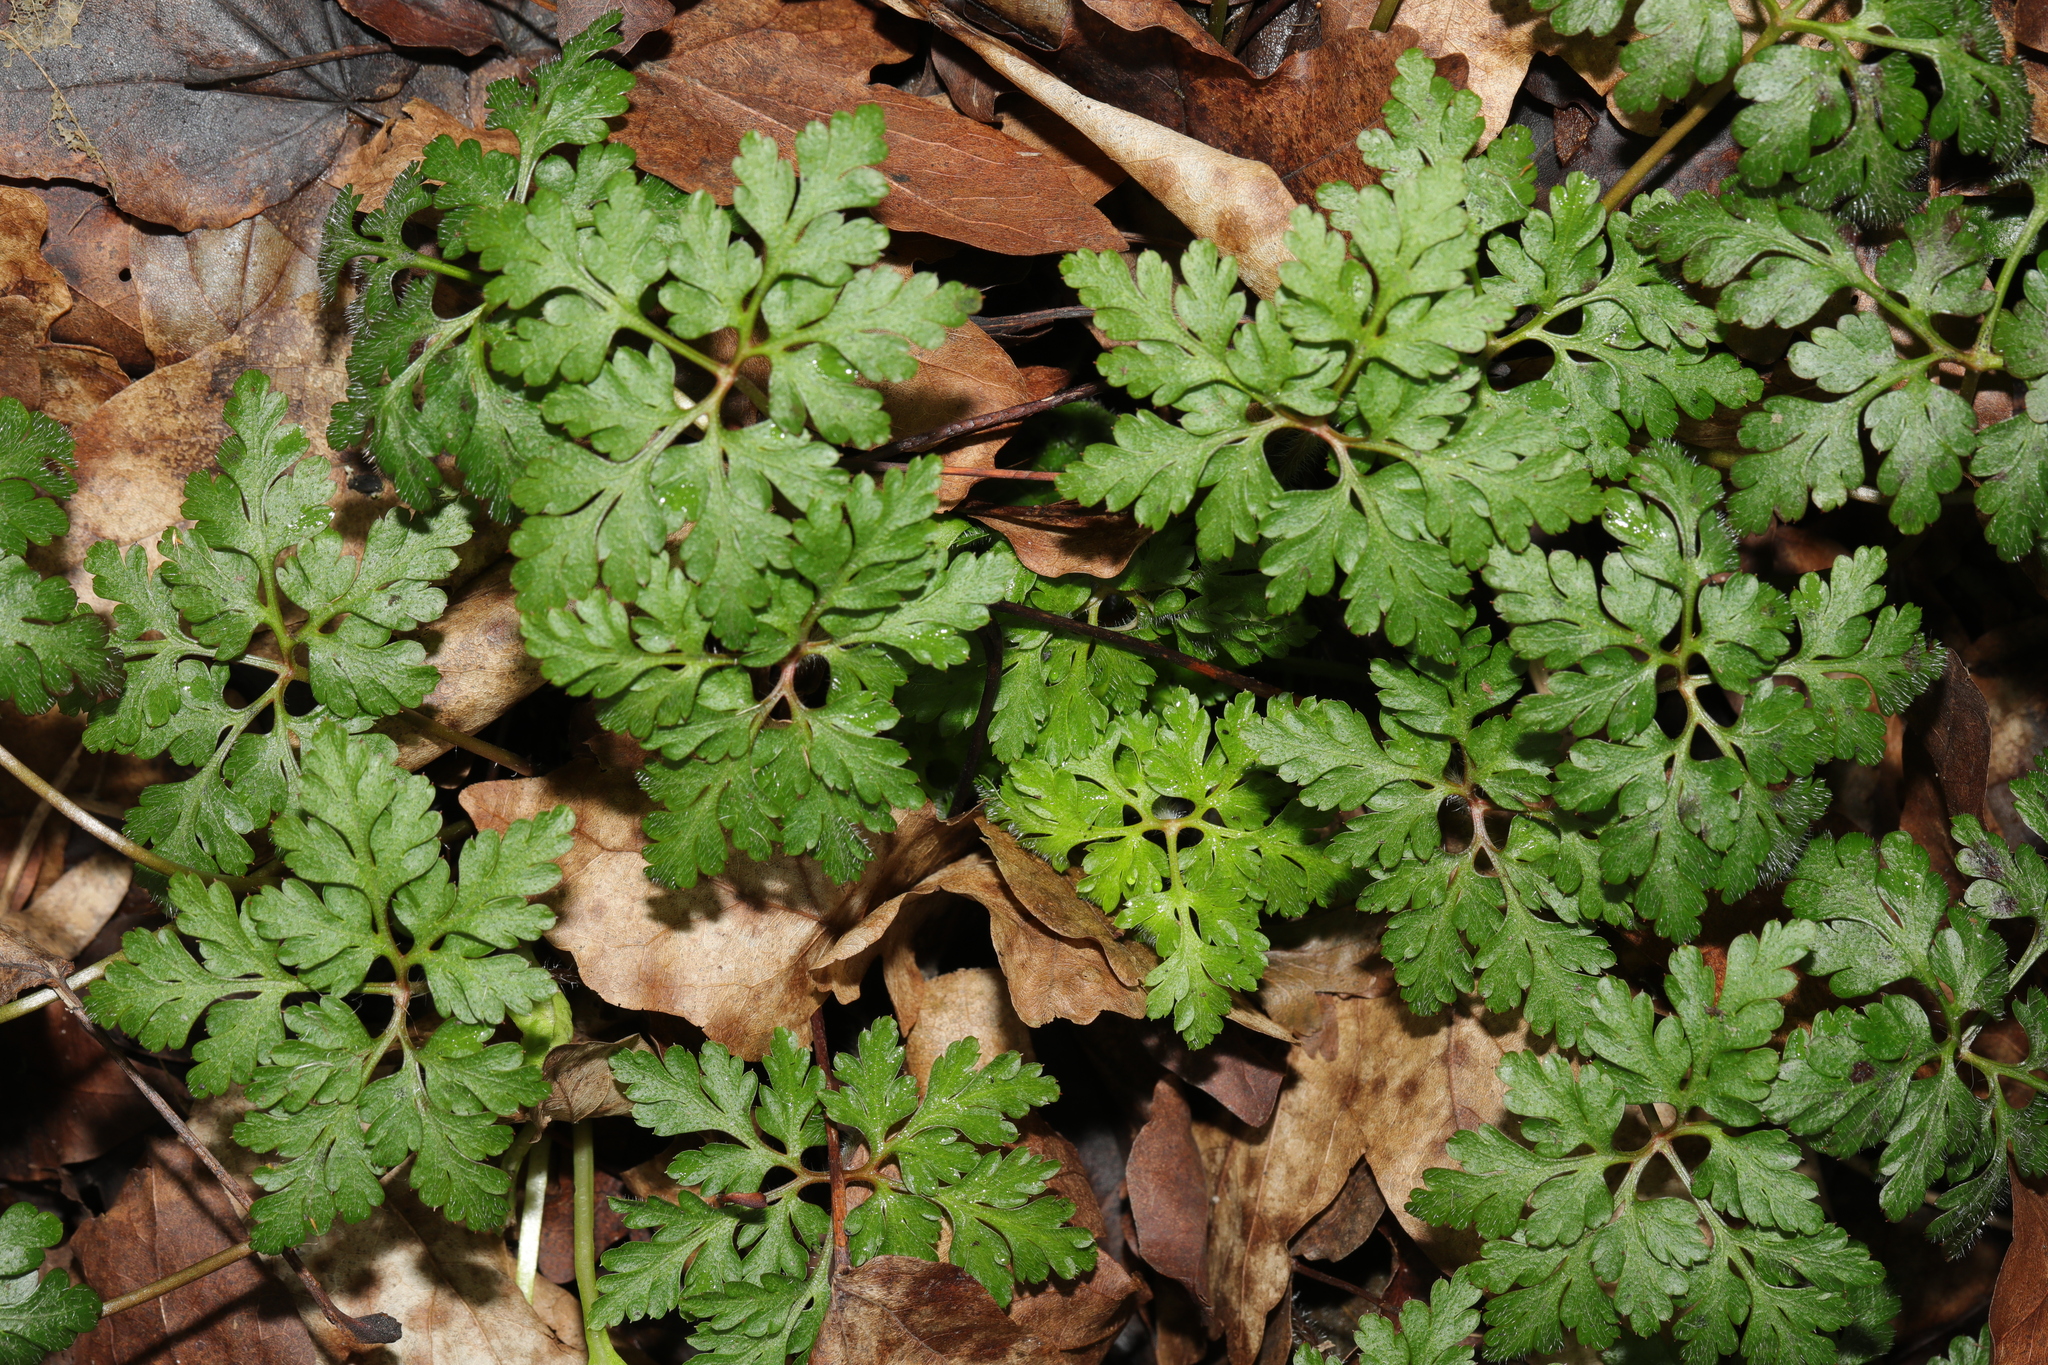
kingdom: Plantae
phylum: Tracheophyta
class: Magnoliopsida
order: Geraniales
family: Geraniaceae
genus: Geranium
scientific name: Geranium robertianum
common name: Herb-robert
